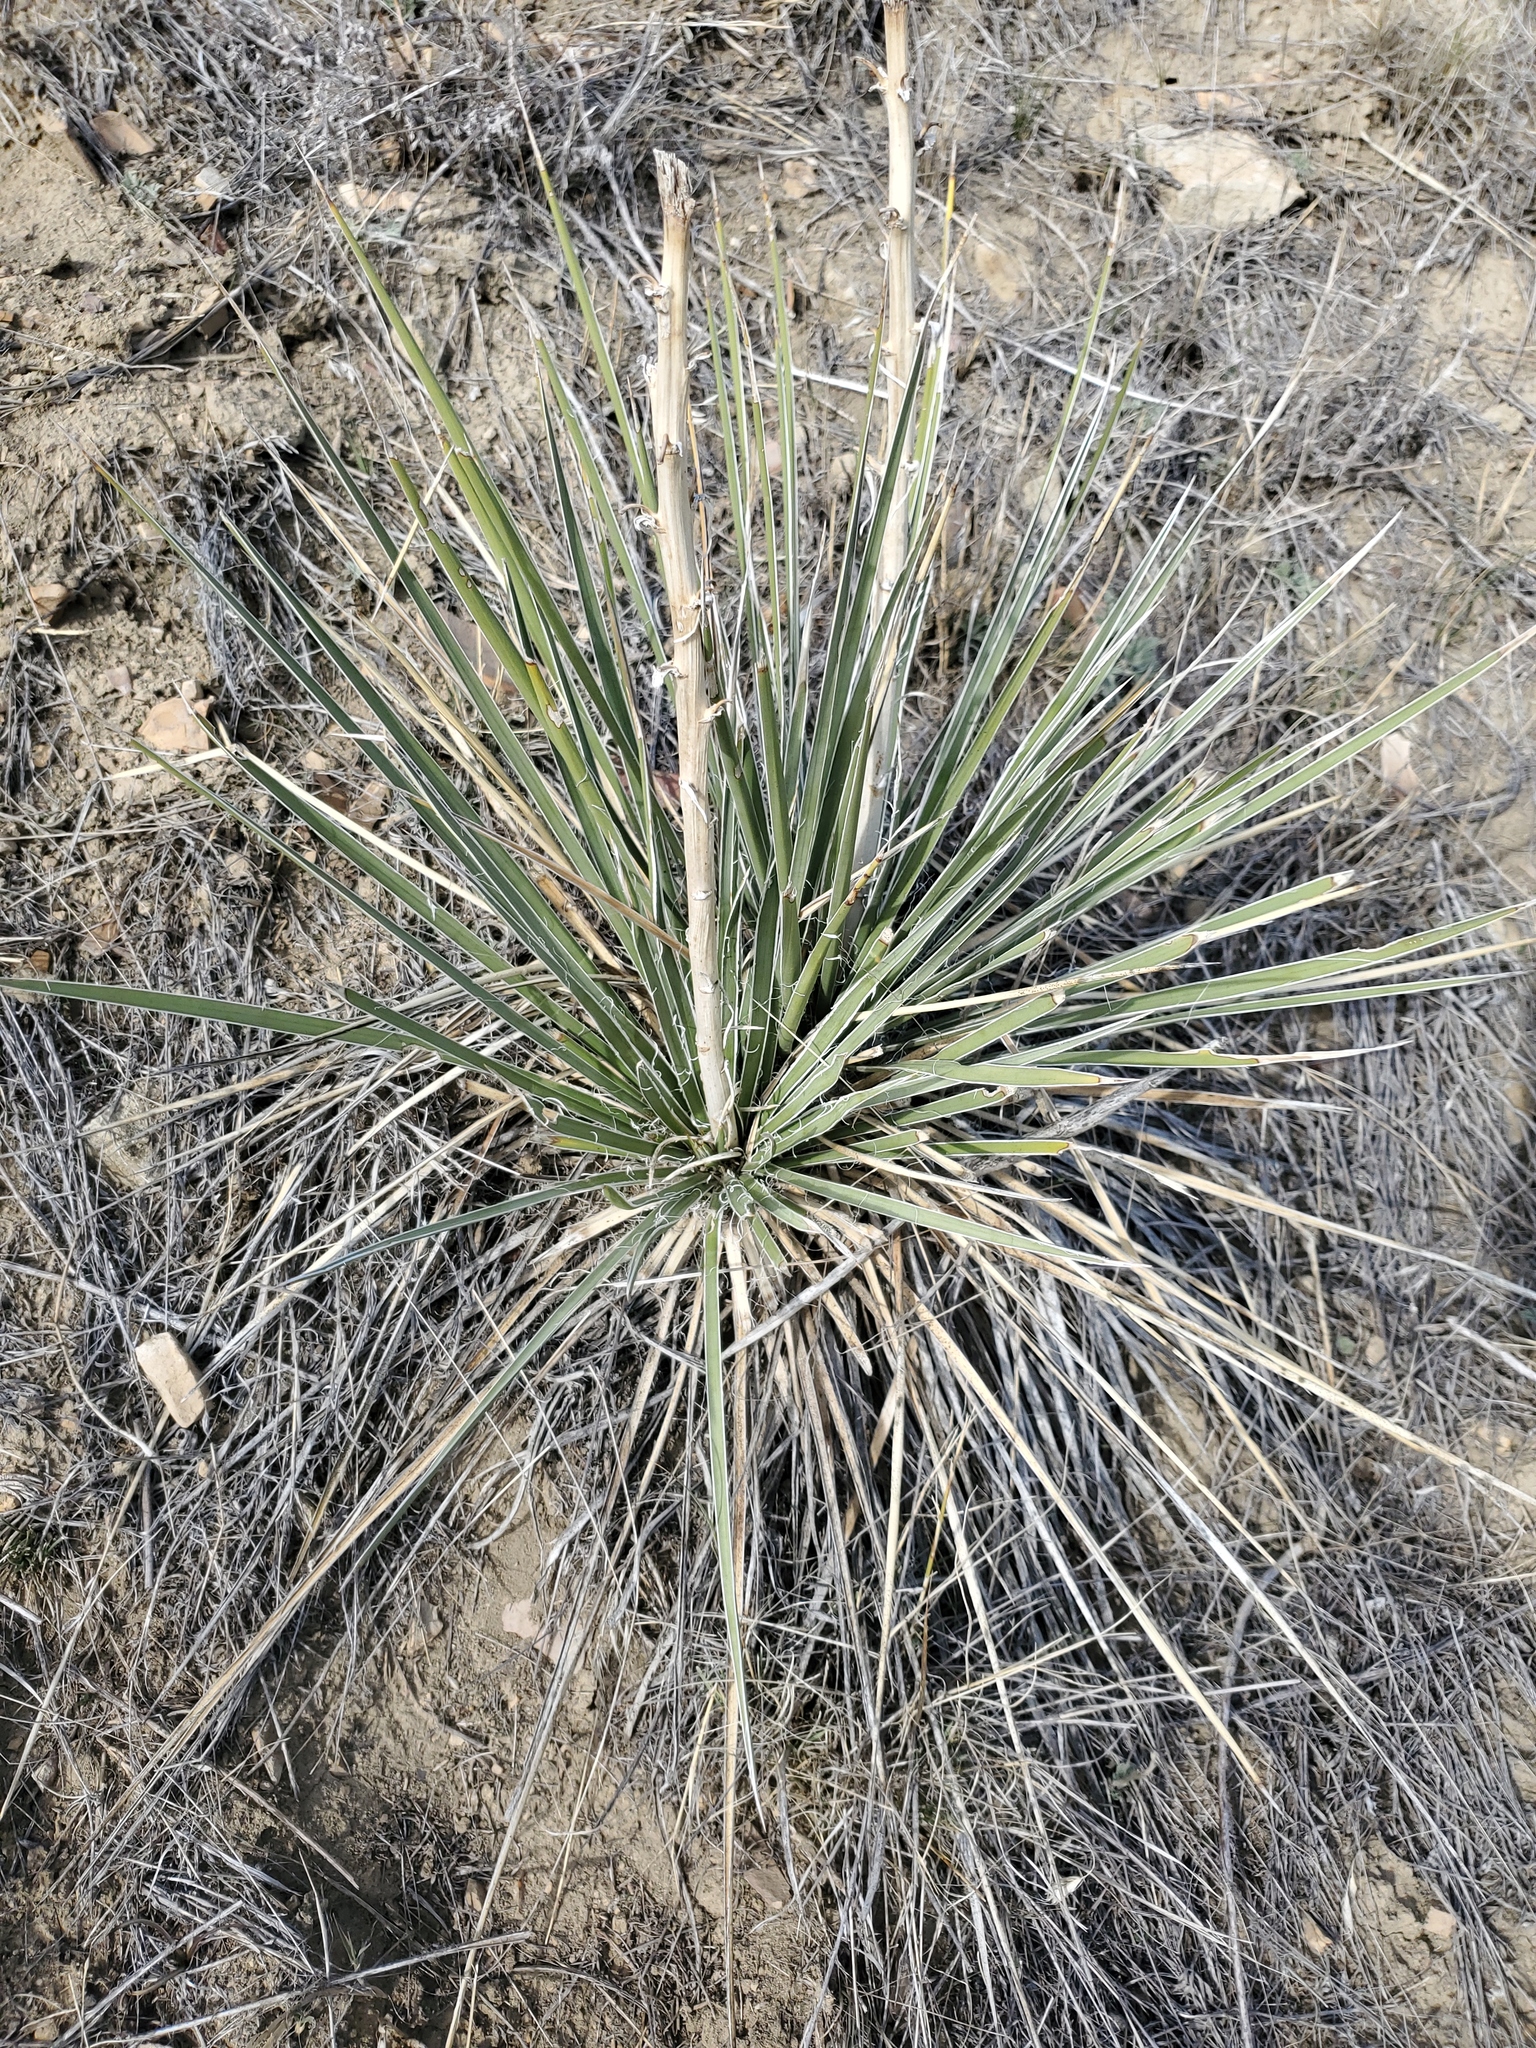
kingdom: Plantae
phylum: Tracheophyta
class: Liliopsida
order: Asparagales
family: Asparagaceae
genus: Yucca
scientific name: Yucca glauca
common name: Great plains yucca
